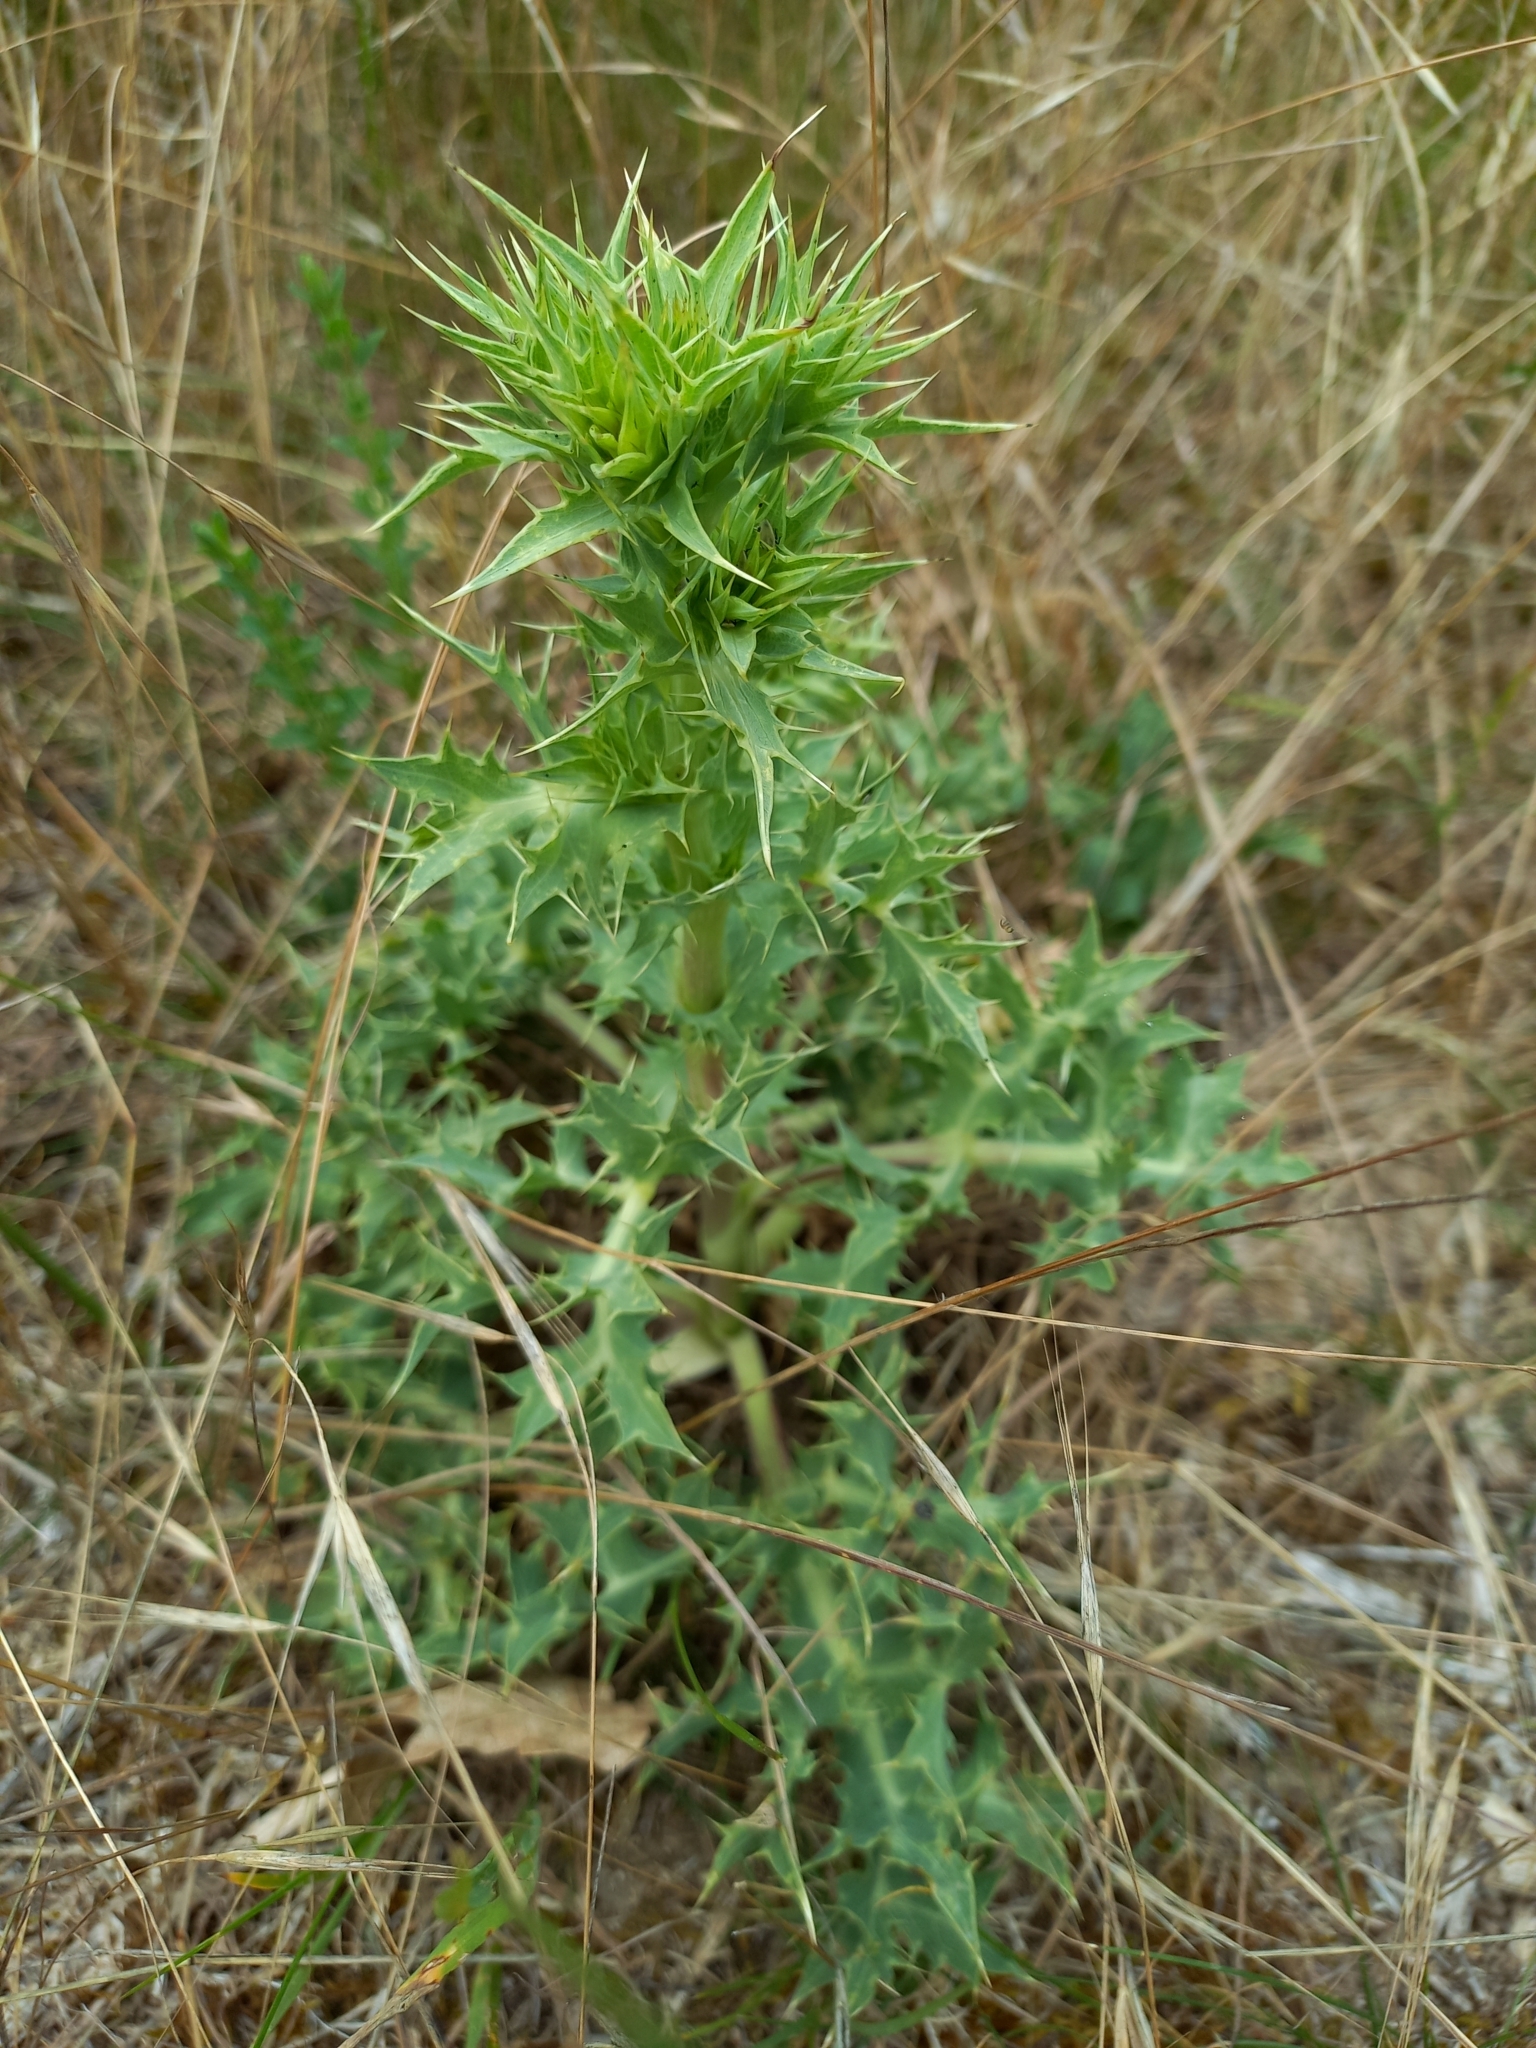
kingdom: Plantae
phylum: Tracheophyta
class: Magnoliopsida
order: Apiales
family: Apiaceae
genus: Eryngium
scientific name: Eryngium campestre
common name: Field eryngo
